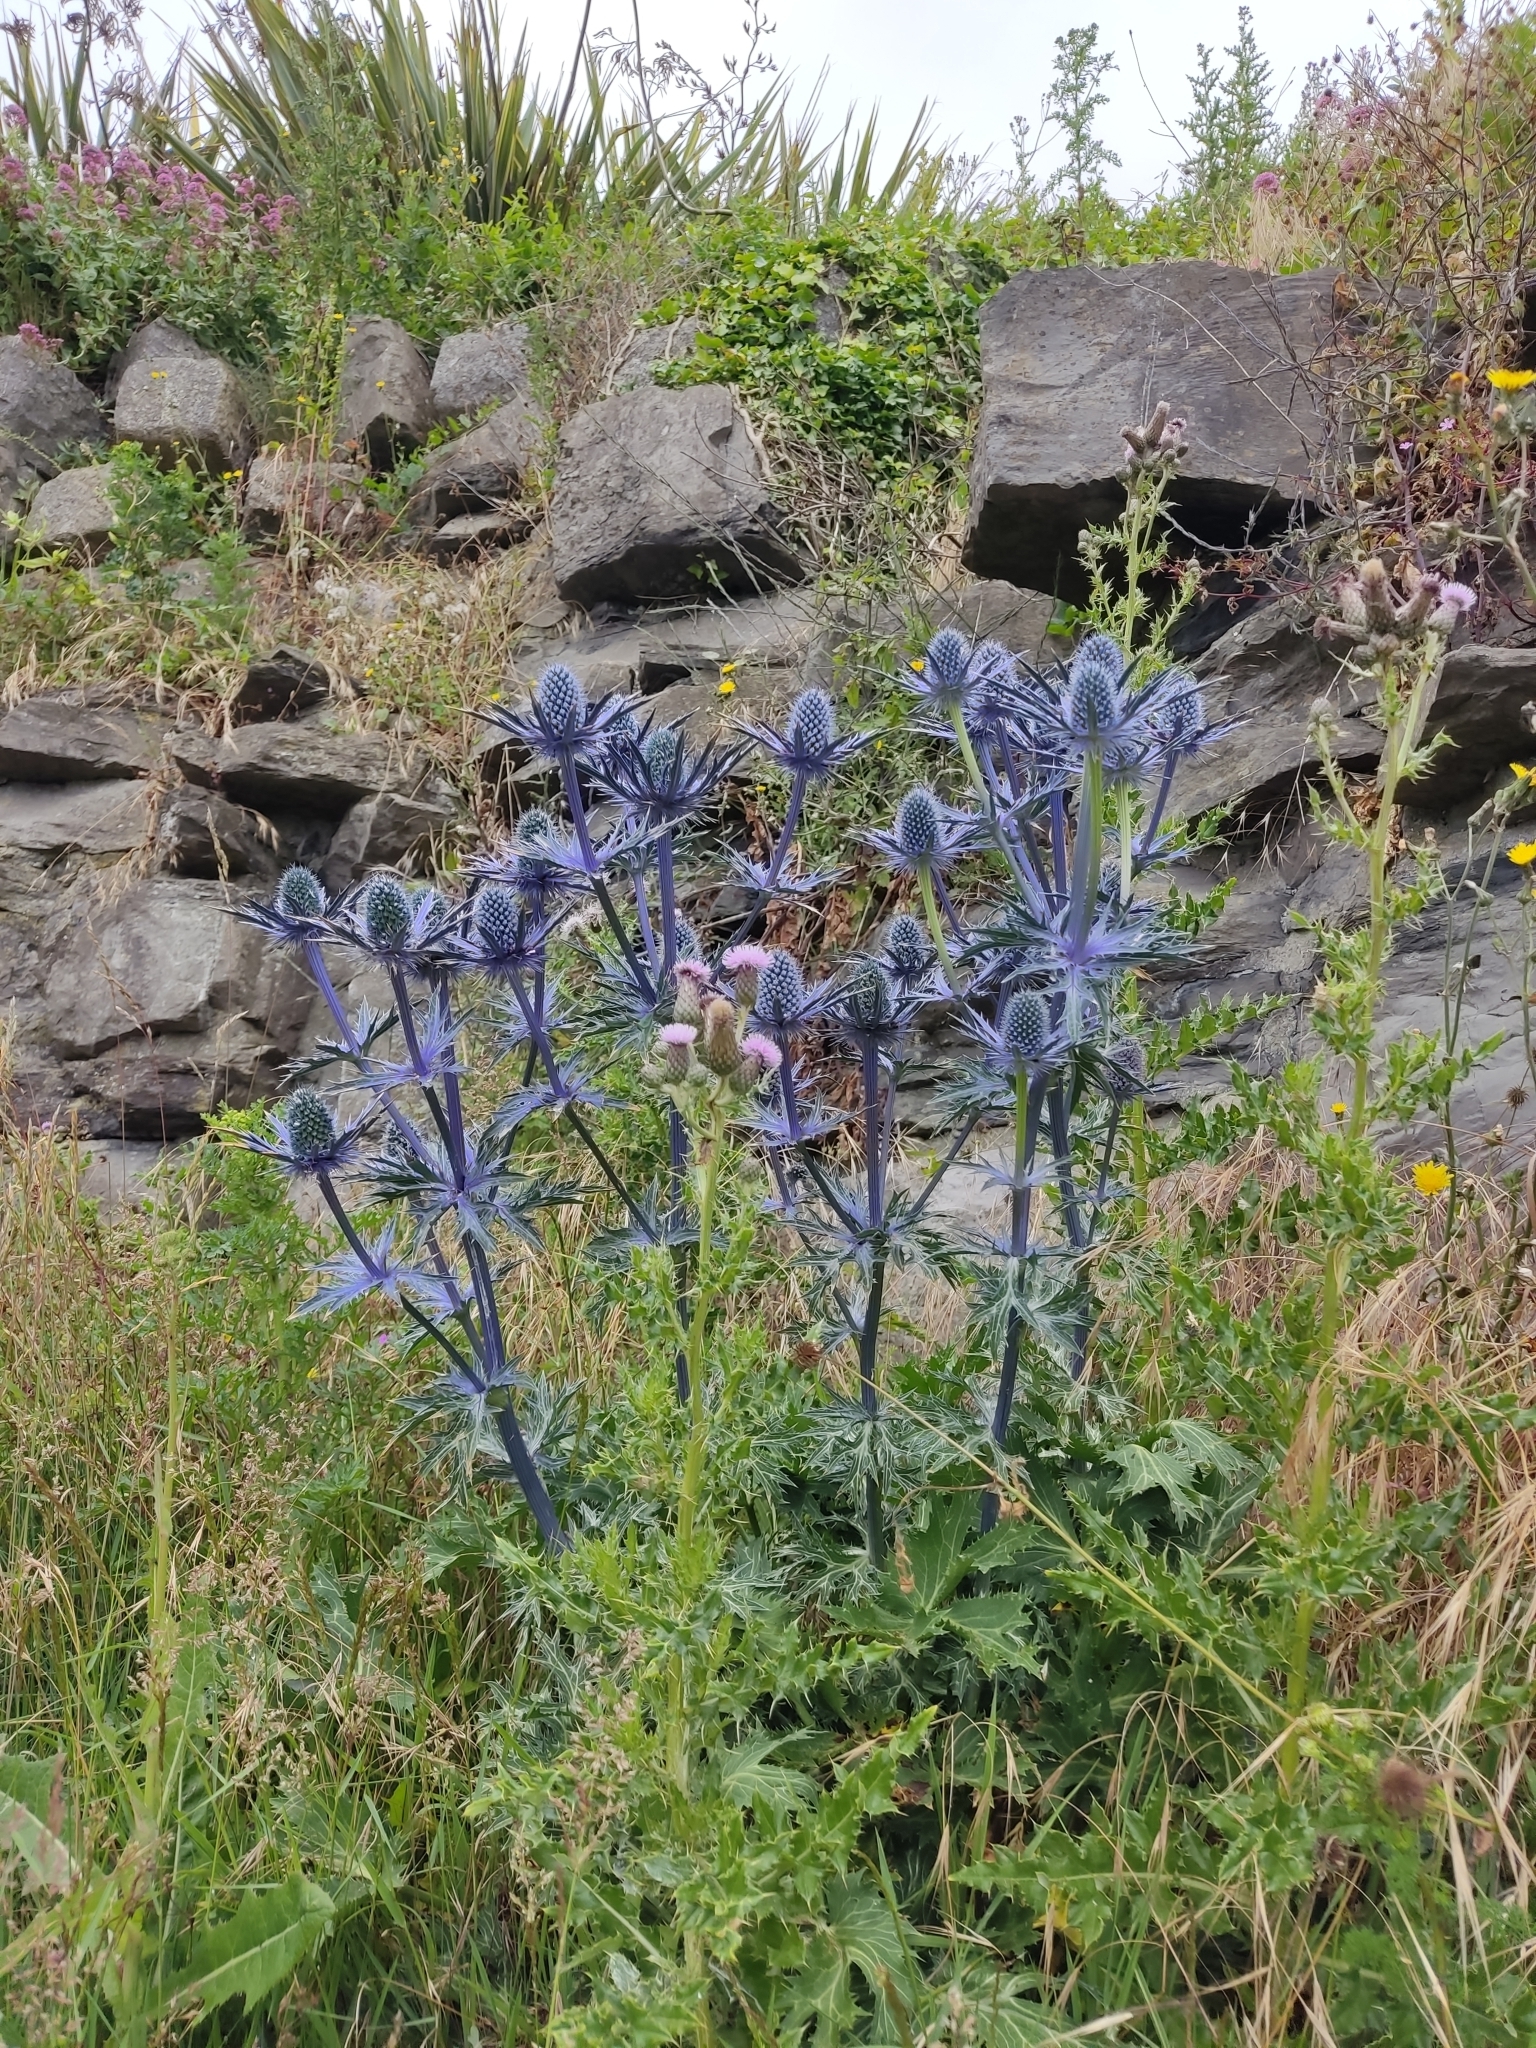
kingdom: Plantae
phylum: Tracheophyta
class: Magnoliopsida
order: Apiales
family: Apiaceae
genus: Eryngium
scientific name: Eryngium amethystinum
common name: Amethyst eryngo
